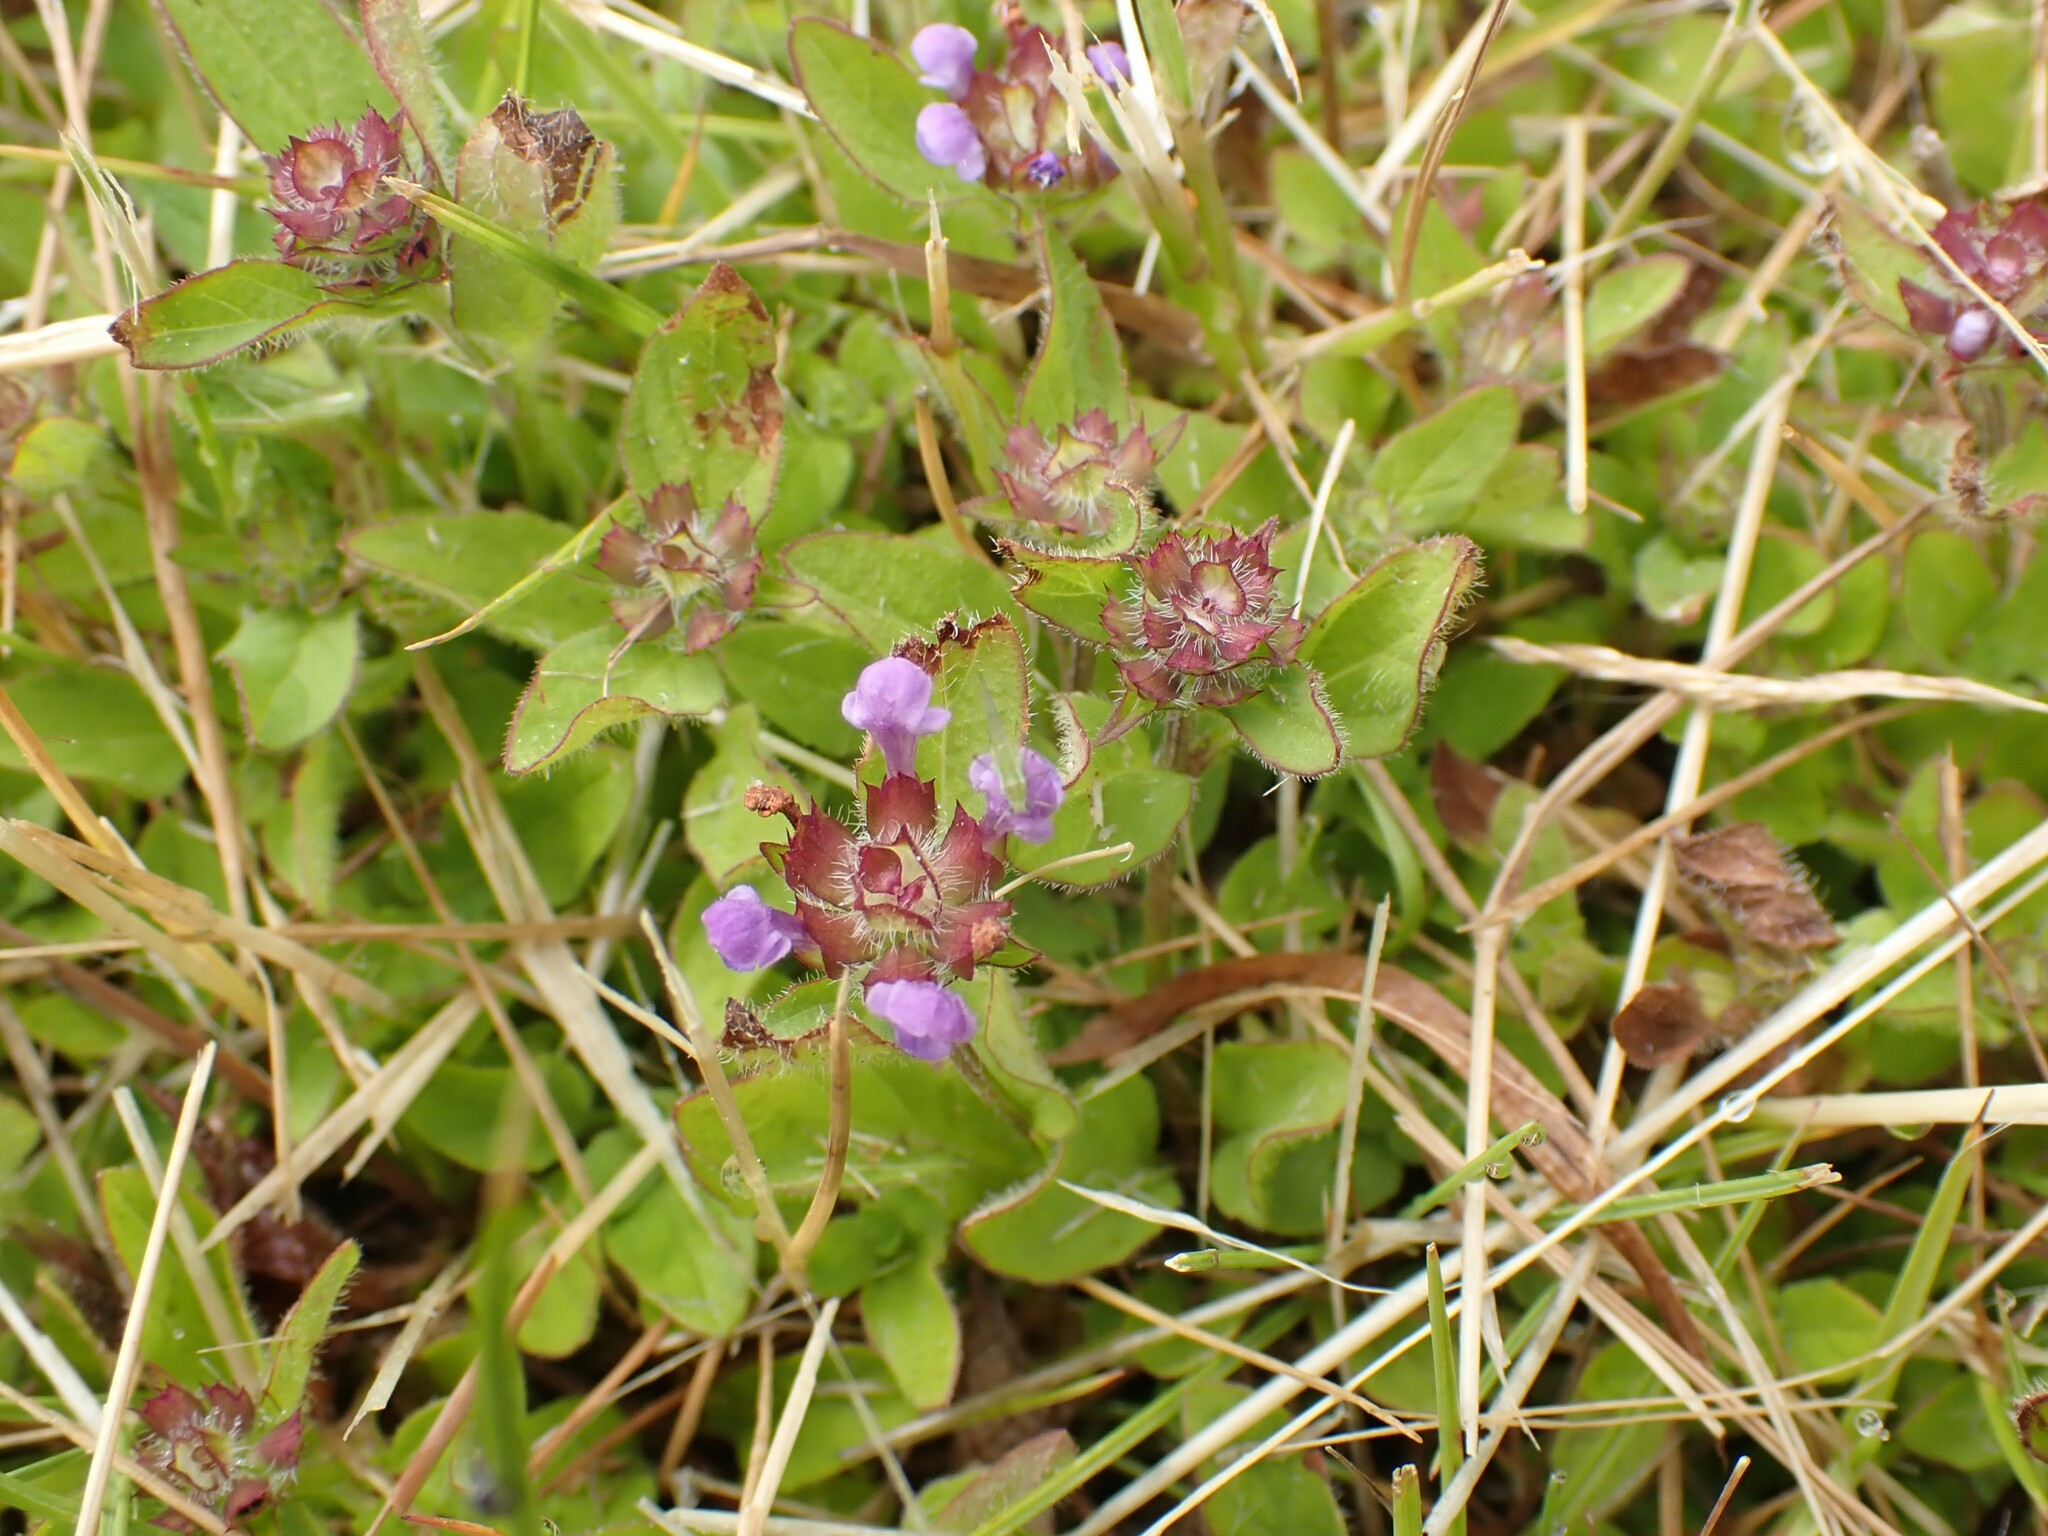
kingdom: Plantae
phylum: Tracheophyta
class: Magnoliopsida
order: Lamiales
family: Lamiaceae
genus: Prunella
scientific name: Prunella vulgaris
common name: Heal-all
